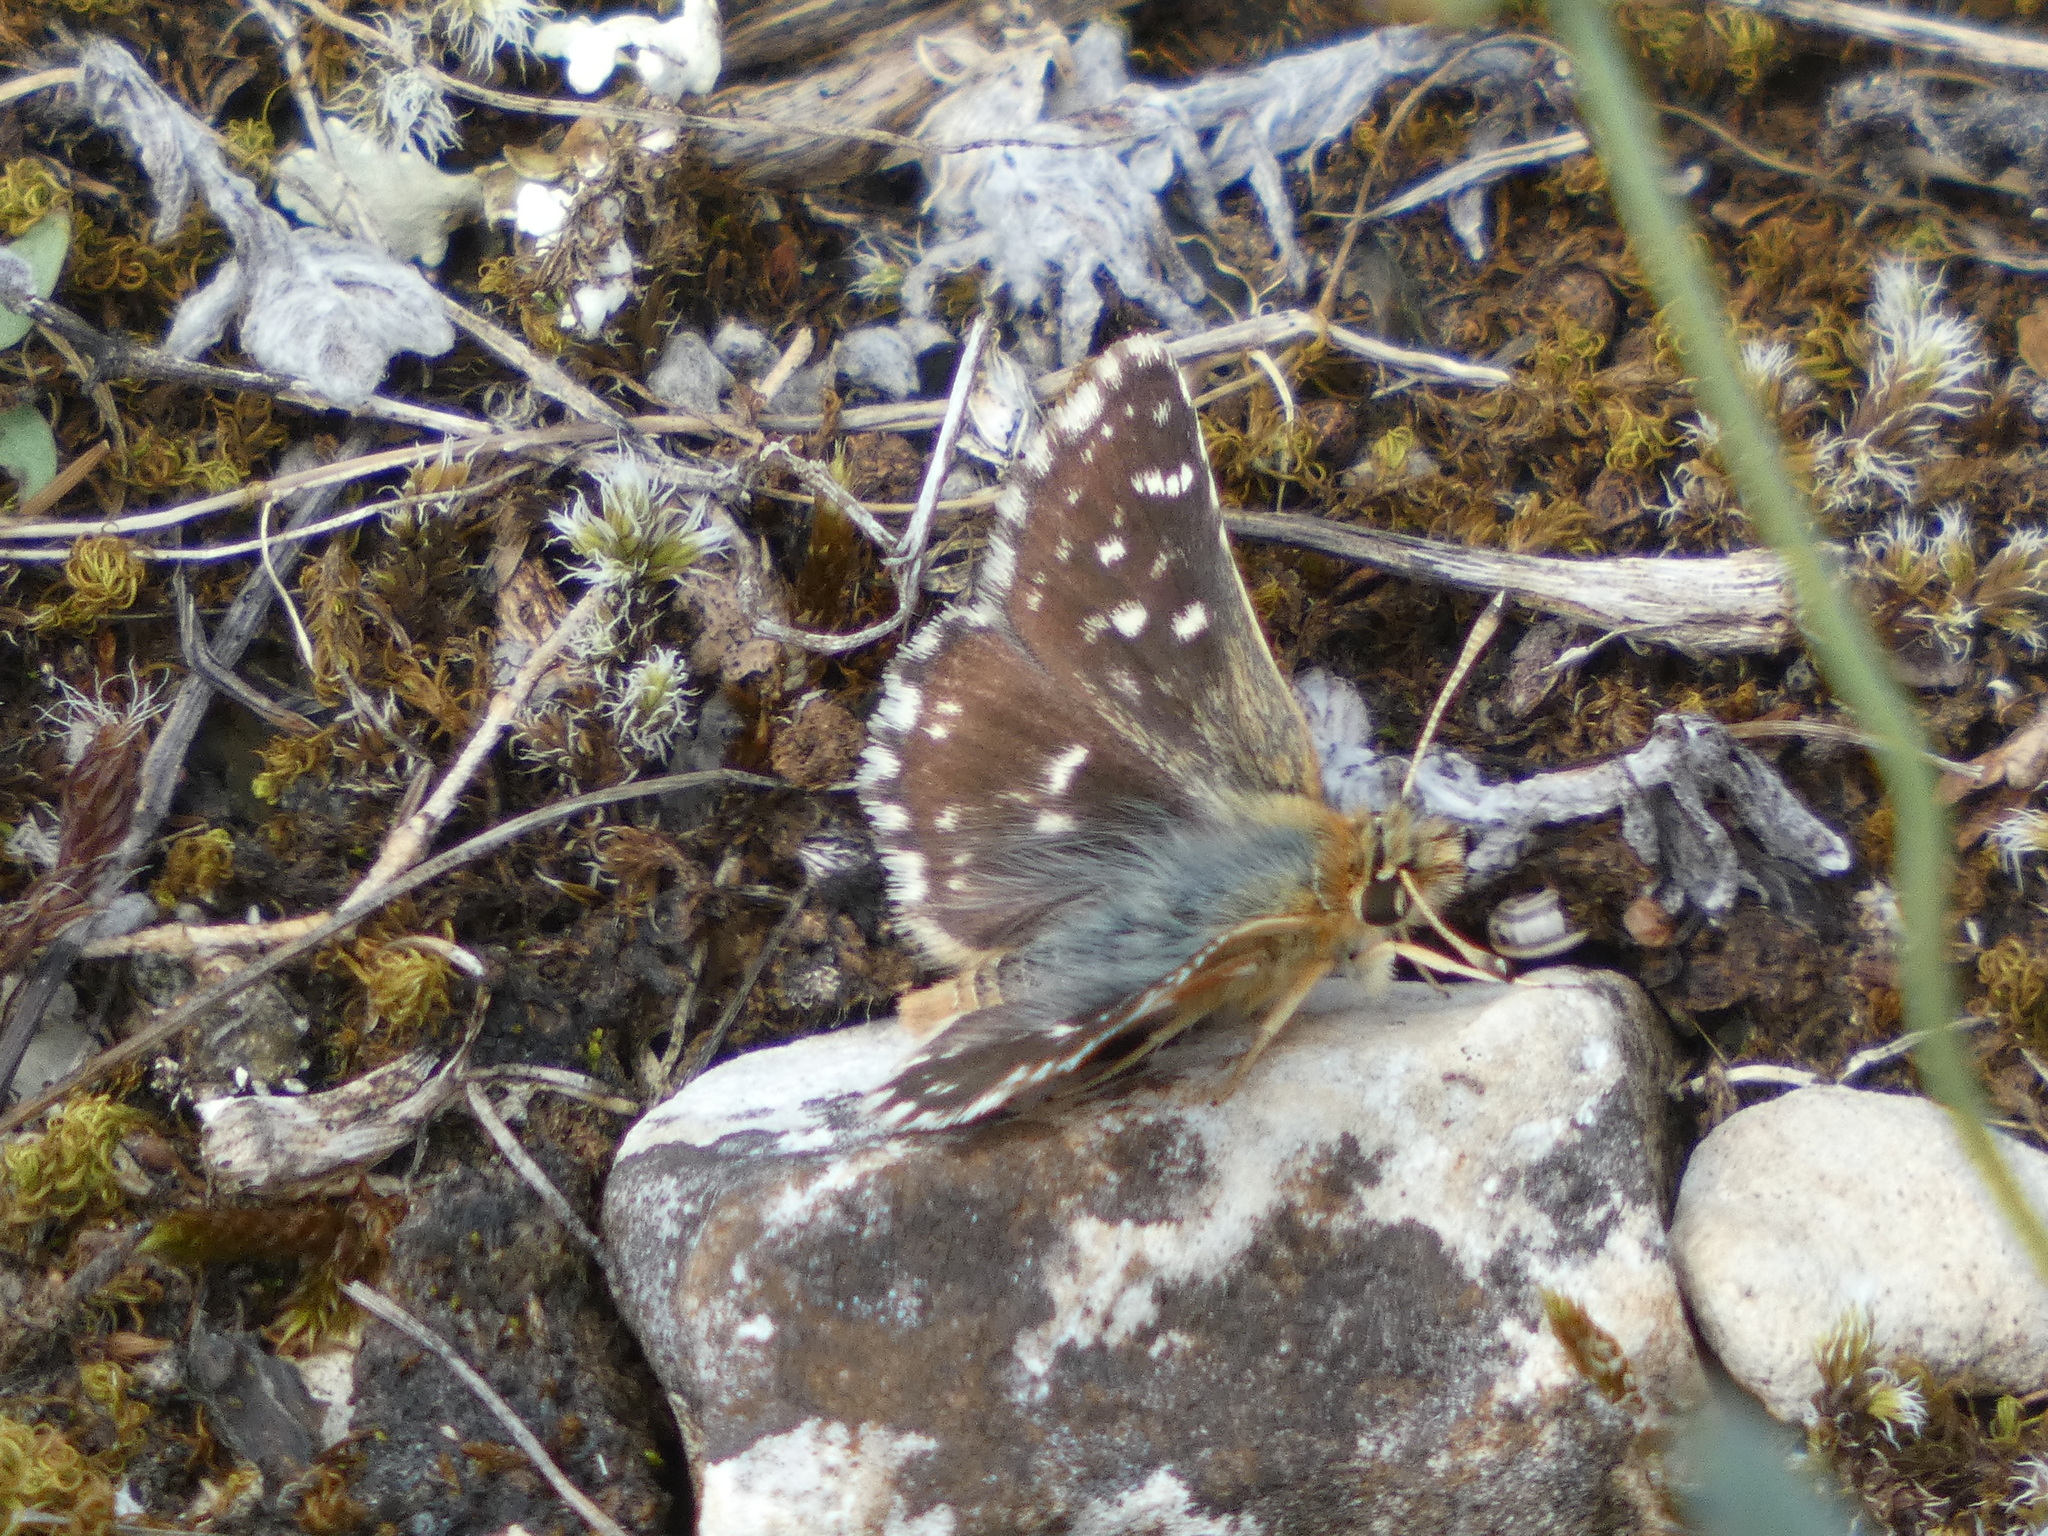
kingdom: Animalia
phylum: Arthropoda
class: Insecta
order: Lepidoptera
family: Hesperiidae
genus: Spialia
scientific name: Spialia sertorius
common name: Red underwing skipper
